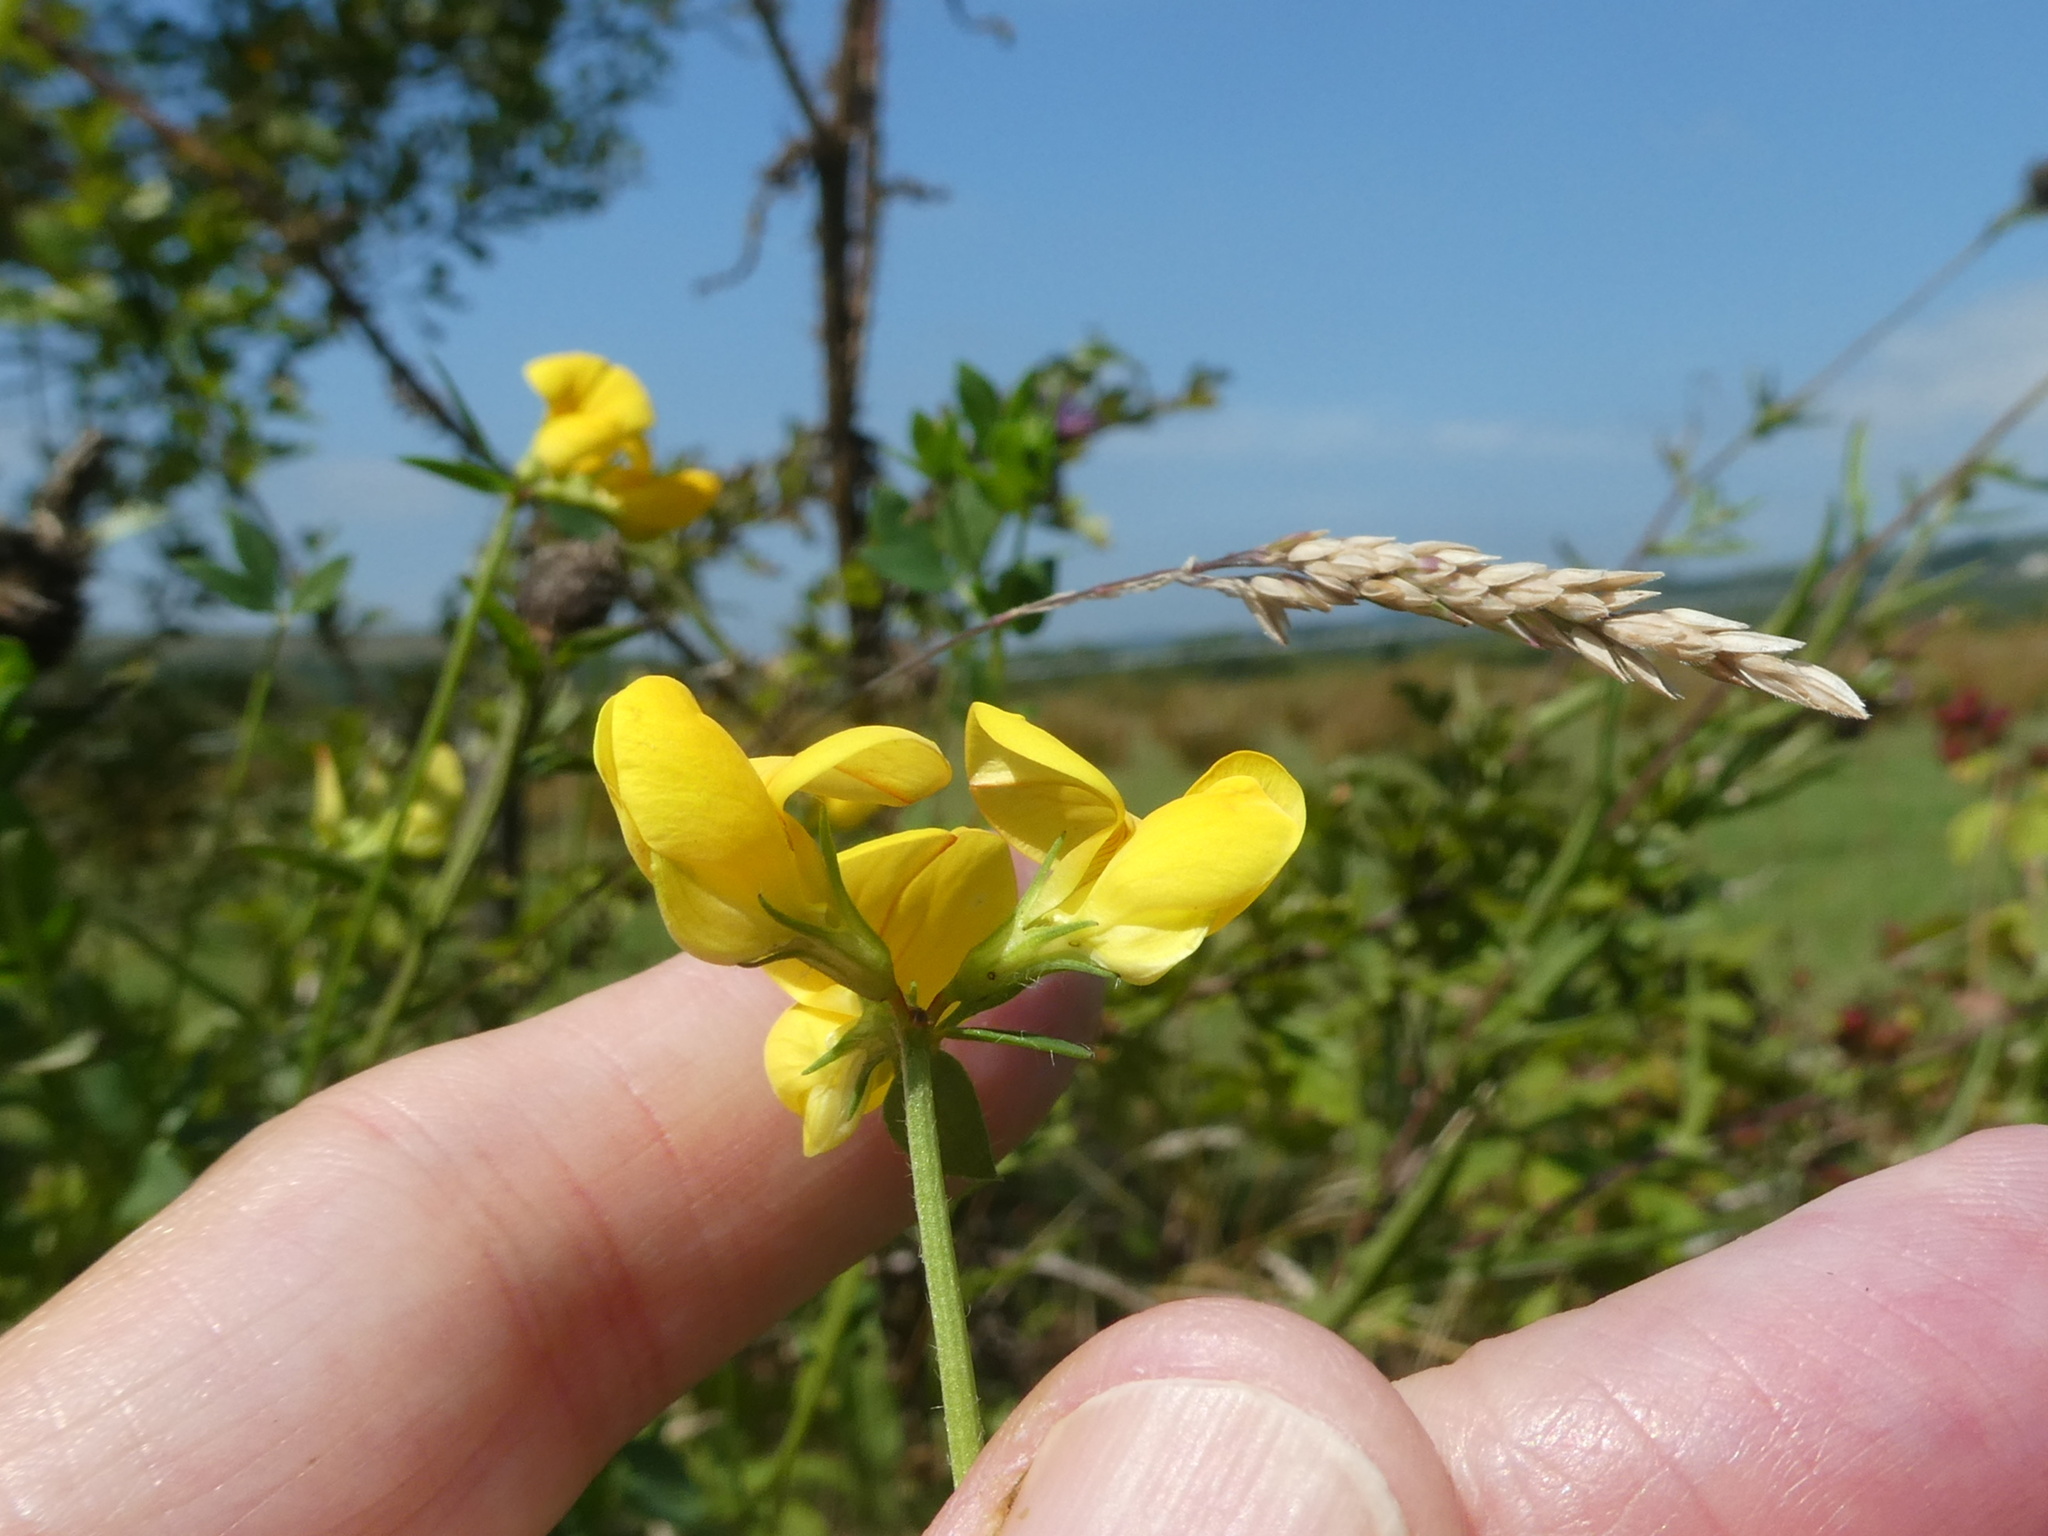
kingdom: Plantae
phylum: Tracheophyta
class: Magnoliopsida
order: Fabales
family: Fabaceae
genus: Lotus
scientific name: Lotus corniculatus
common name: Common bird's-foot-trefoil
